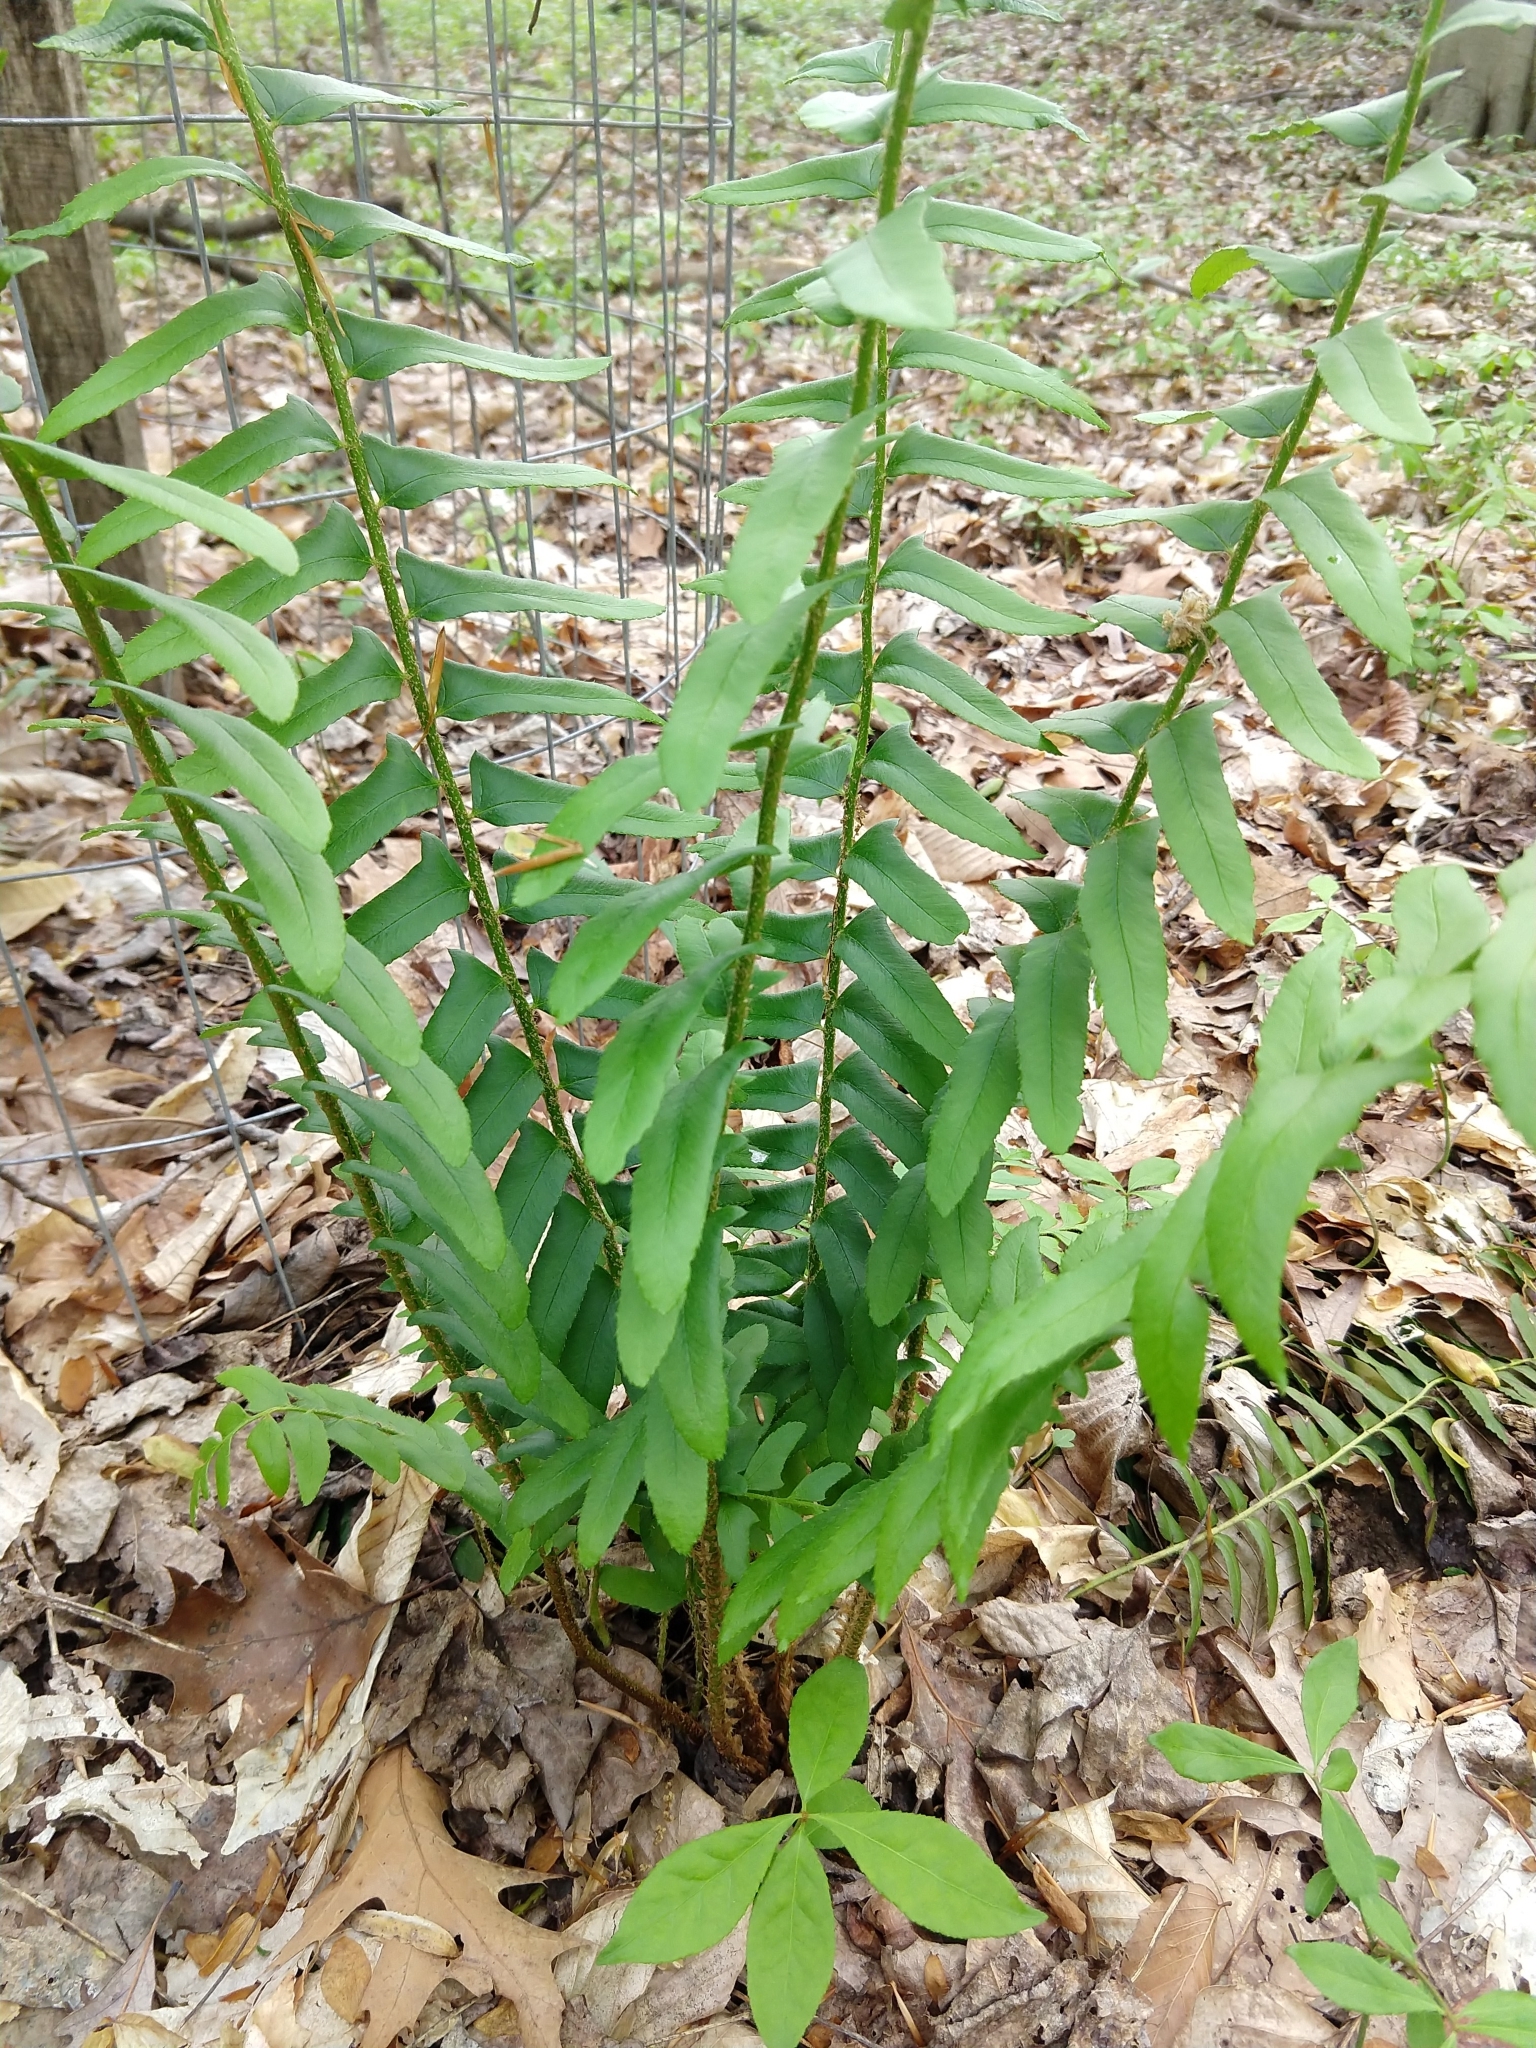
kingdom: Plantae
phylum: Tracheophyta
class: Polypodiopsida
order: Polypodiales
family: Dryopteridaceae
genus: Polystichum
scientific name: Polystichum acrostichoides
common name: Christmas fern
